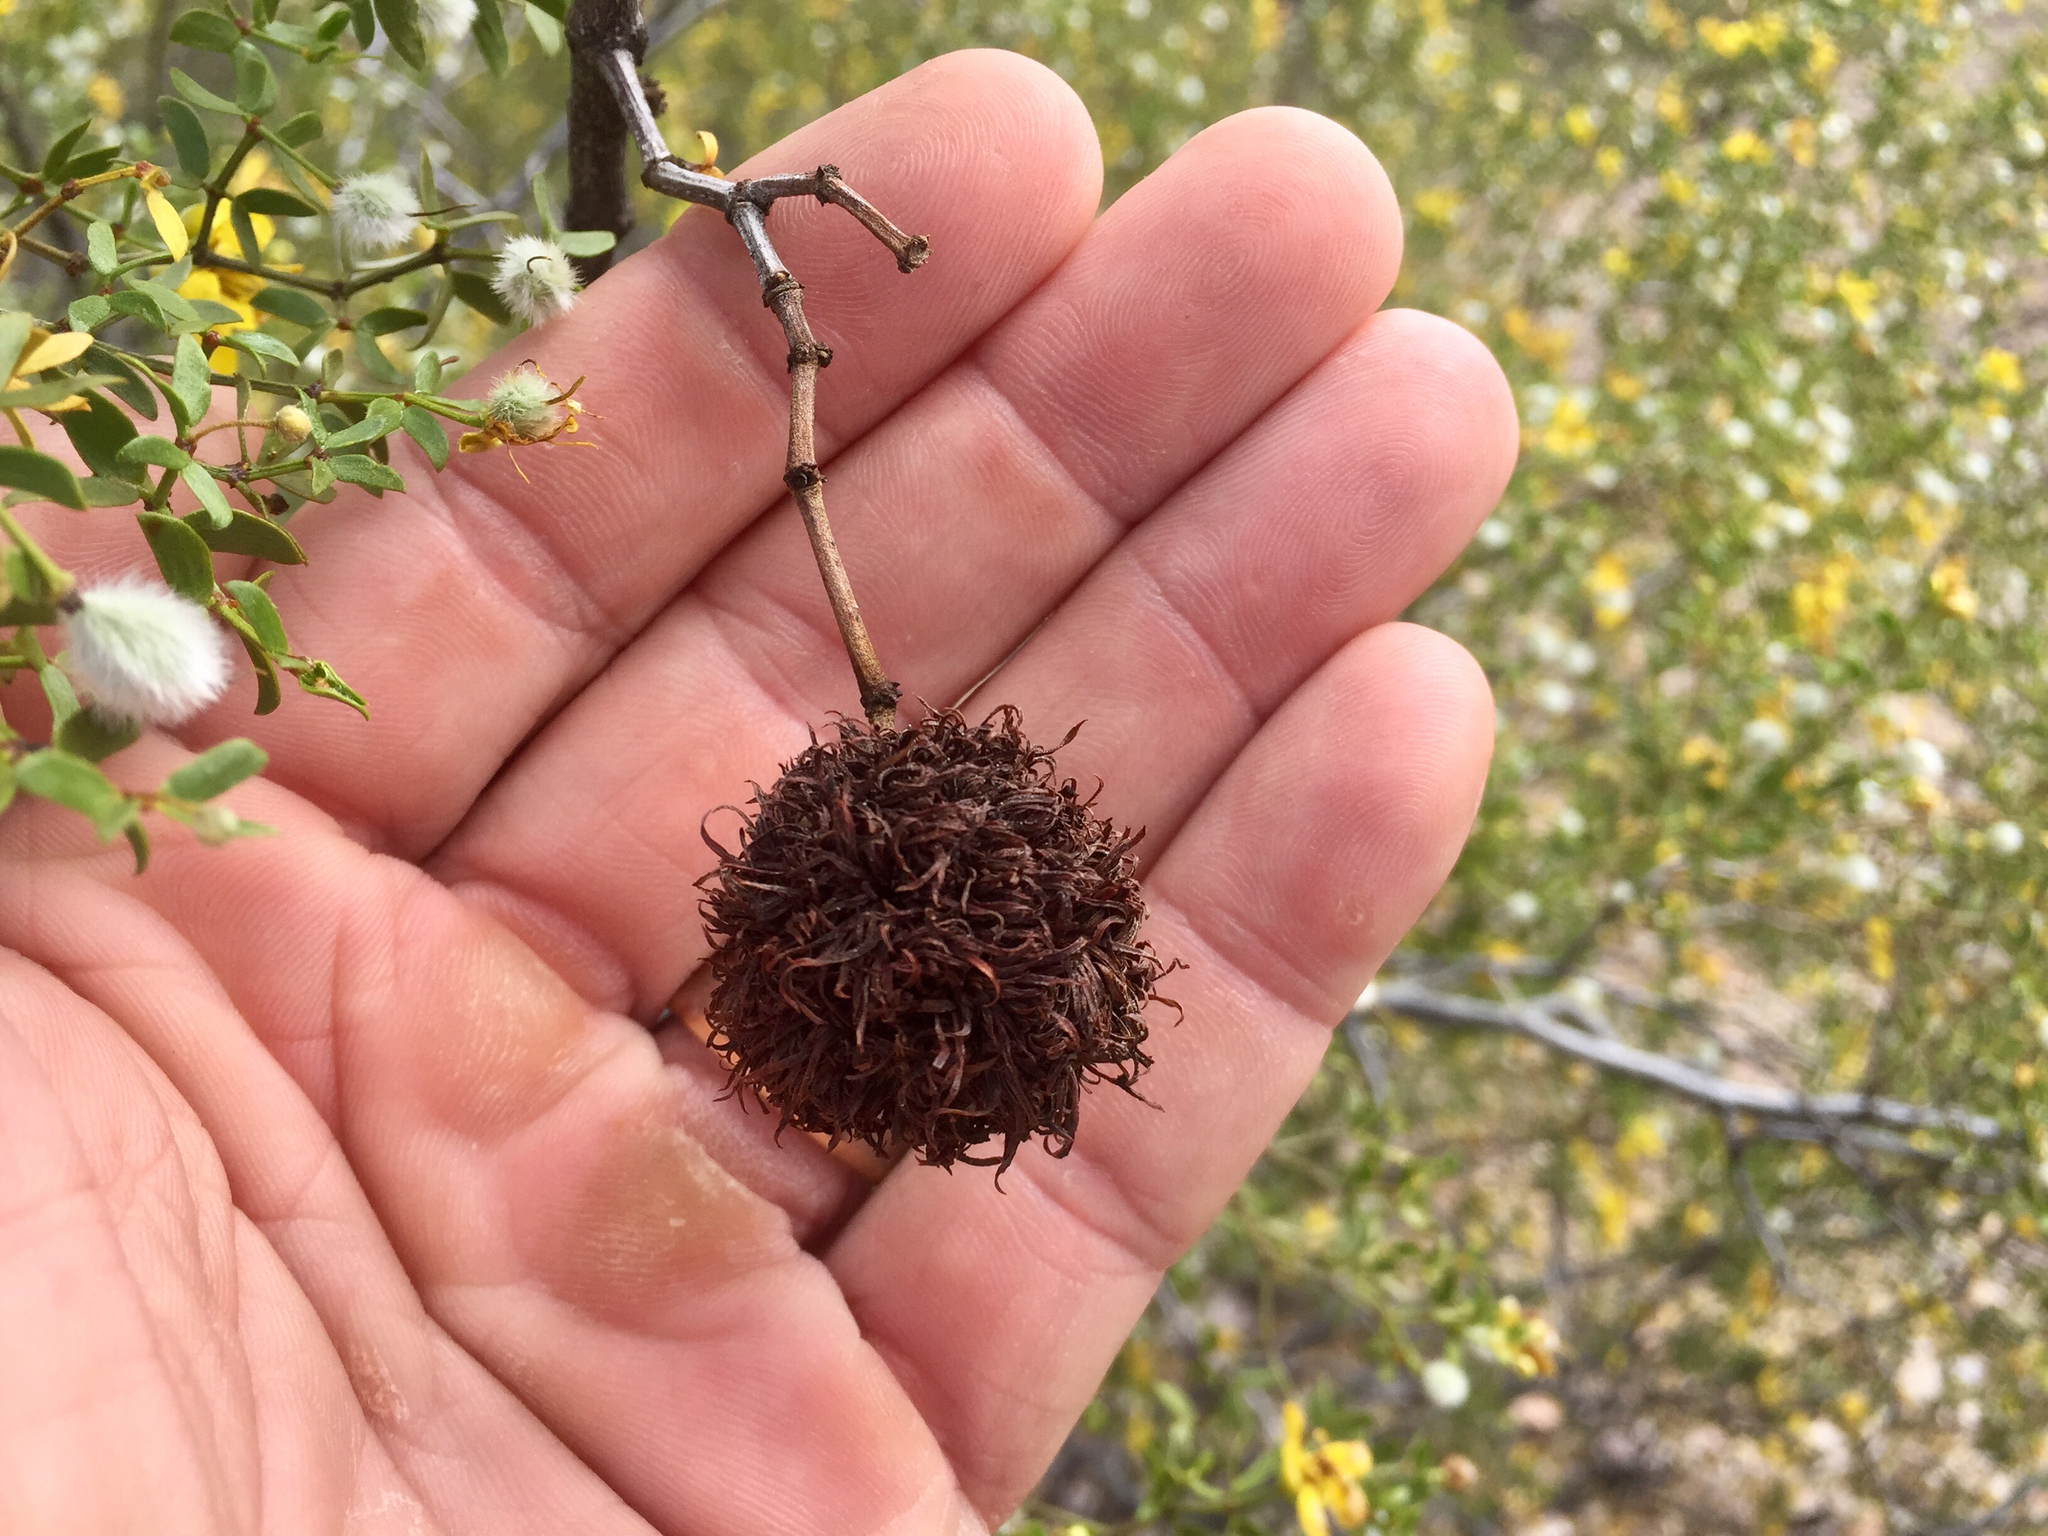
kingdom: Animalia
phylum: Arthropoda
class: Insecta
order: Diptera
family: Cecidomyiidae
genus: Asphondylia
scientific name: Asphondylia auripila
